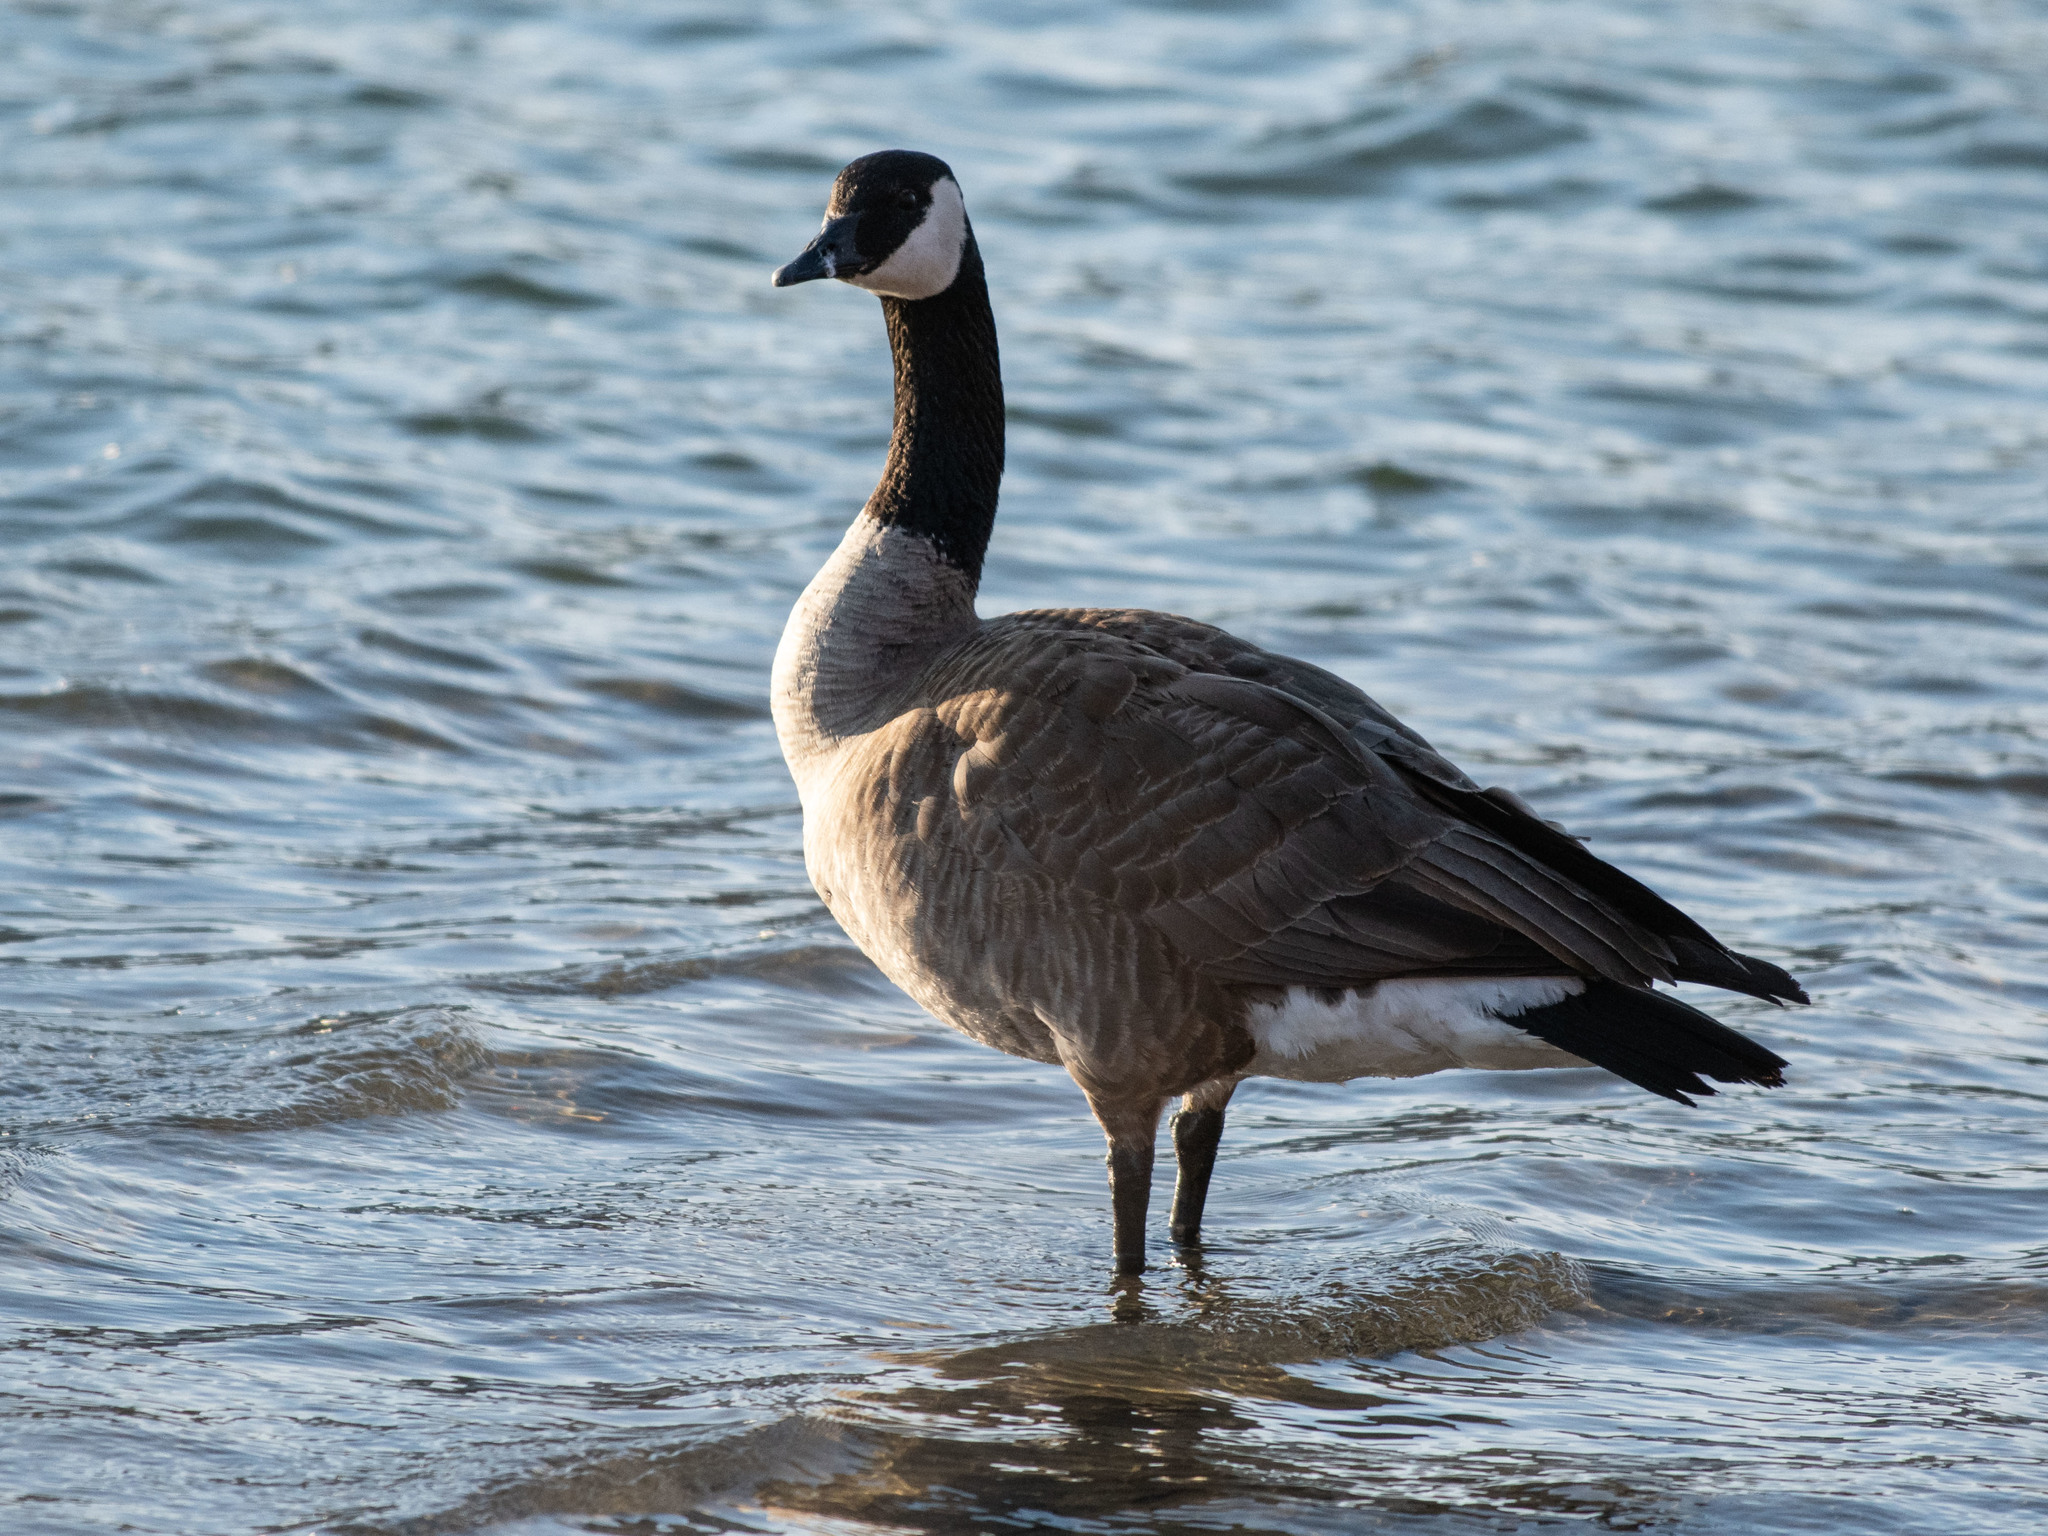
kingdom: Animalia
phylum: Chordata
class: Aves
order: Anseriformes
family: Anatidae
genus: Branta
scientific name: Branta canadensis
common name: Canada goose
